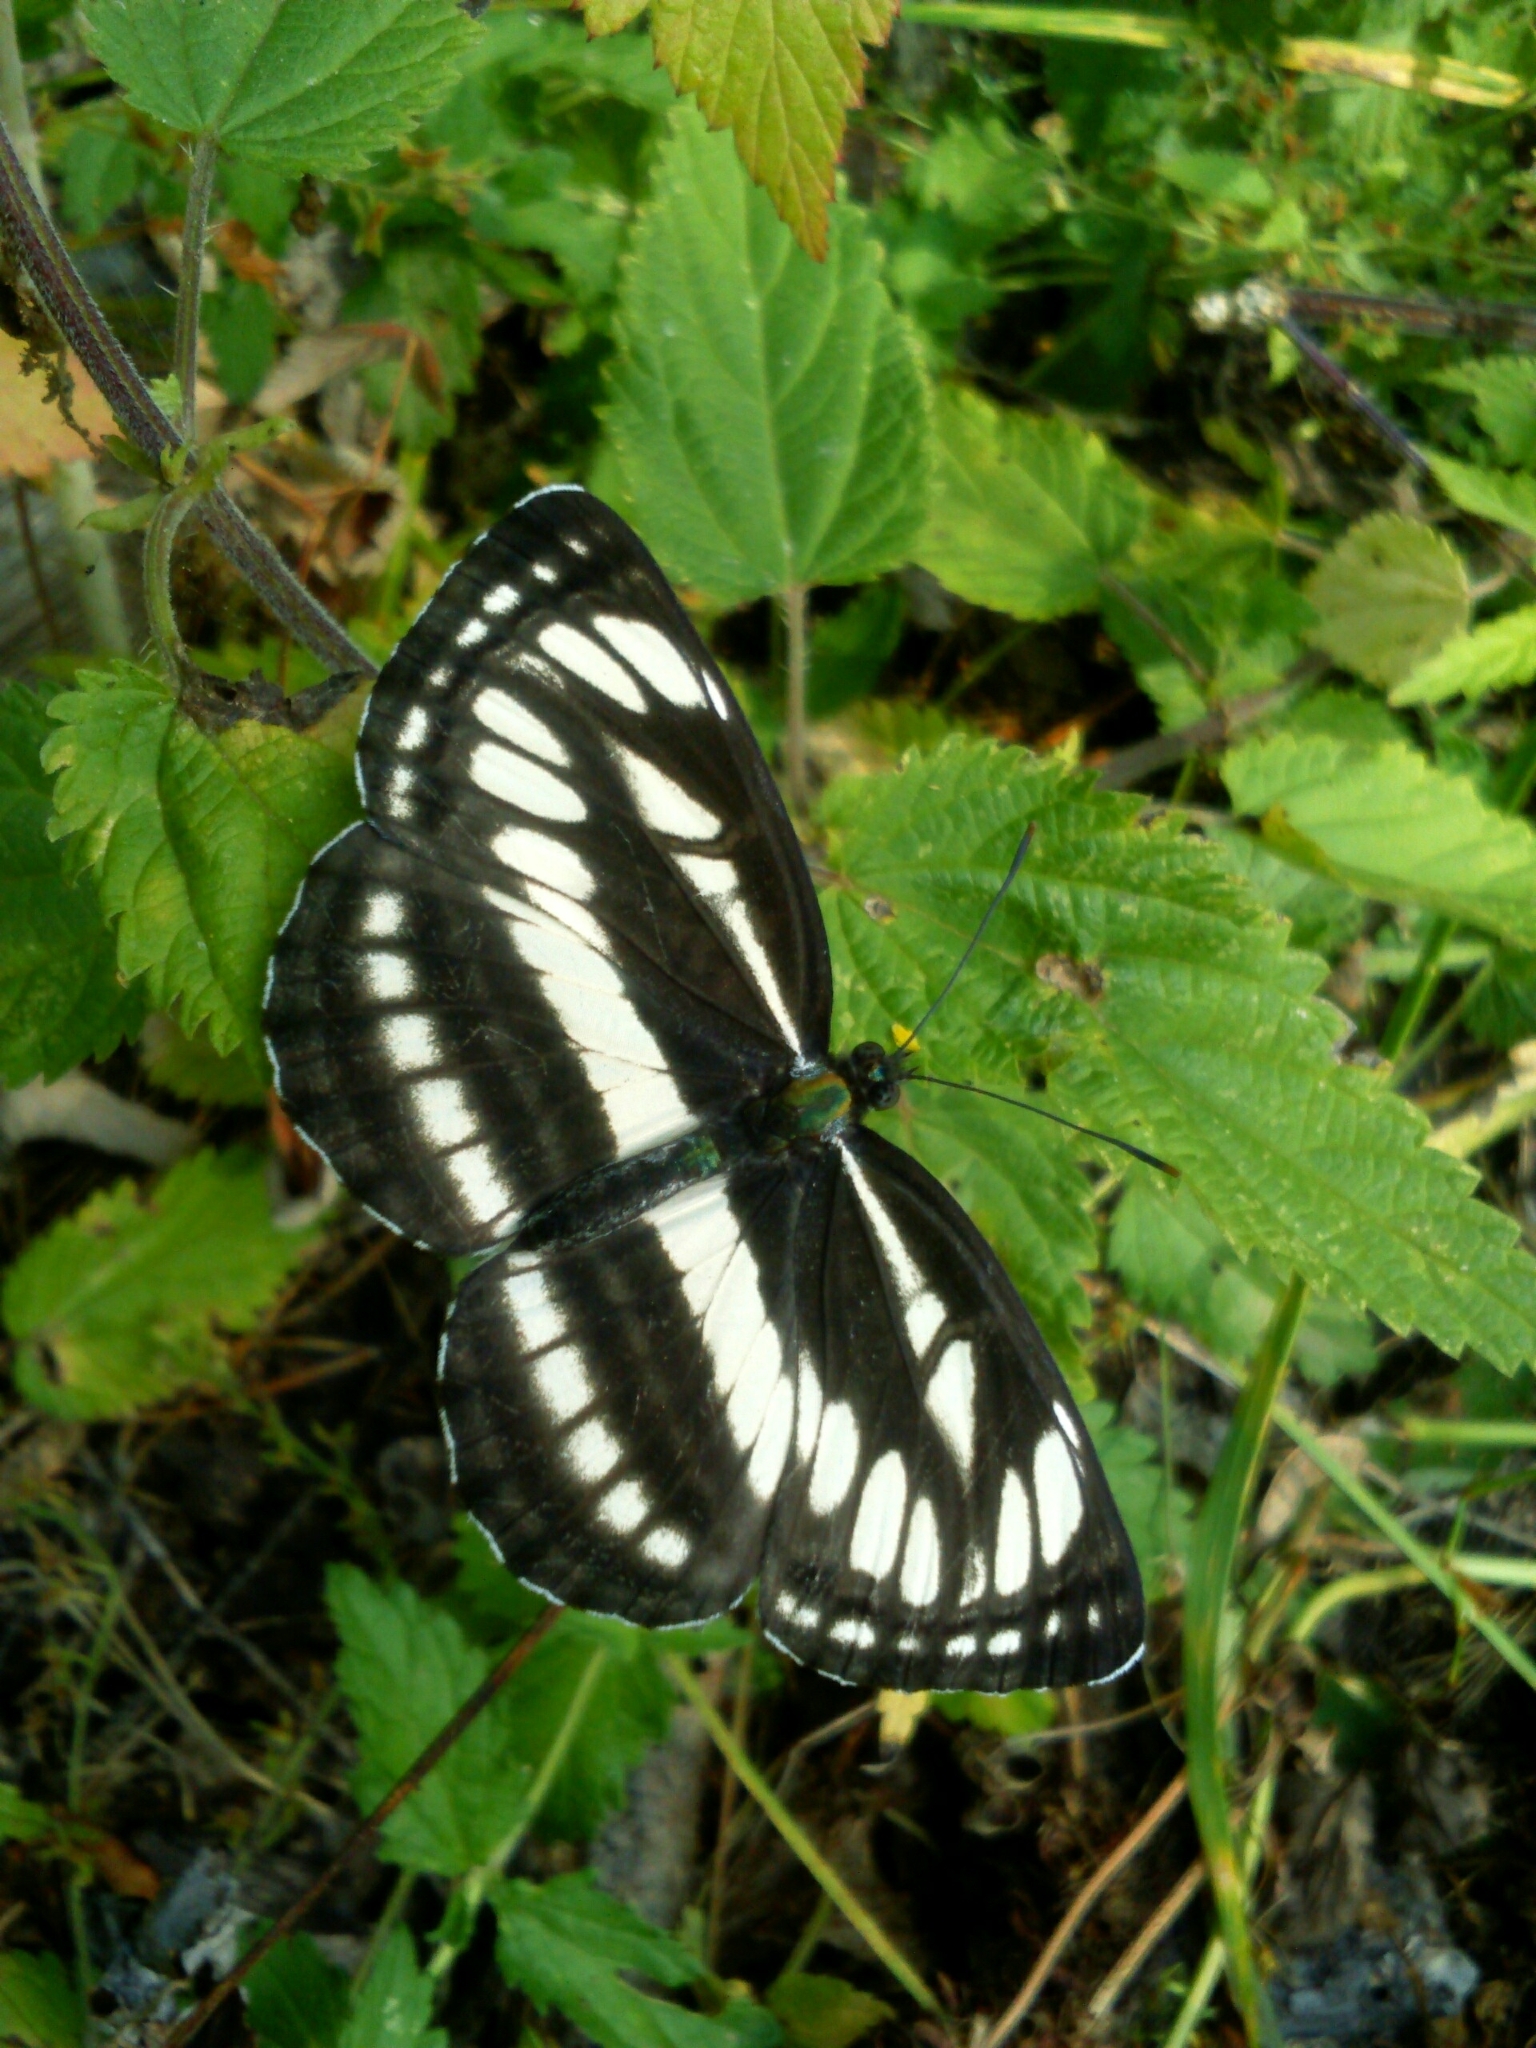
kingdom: Animalia
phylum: Arthropoda
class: Insecta
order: Lepidoptera
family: Nymphalidae
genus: Neptis
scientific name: Neptis sappho
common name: Common glider
